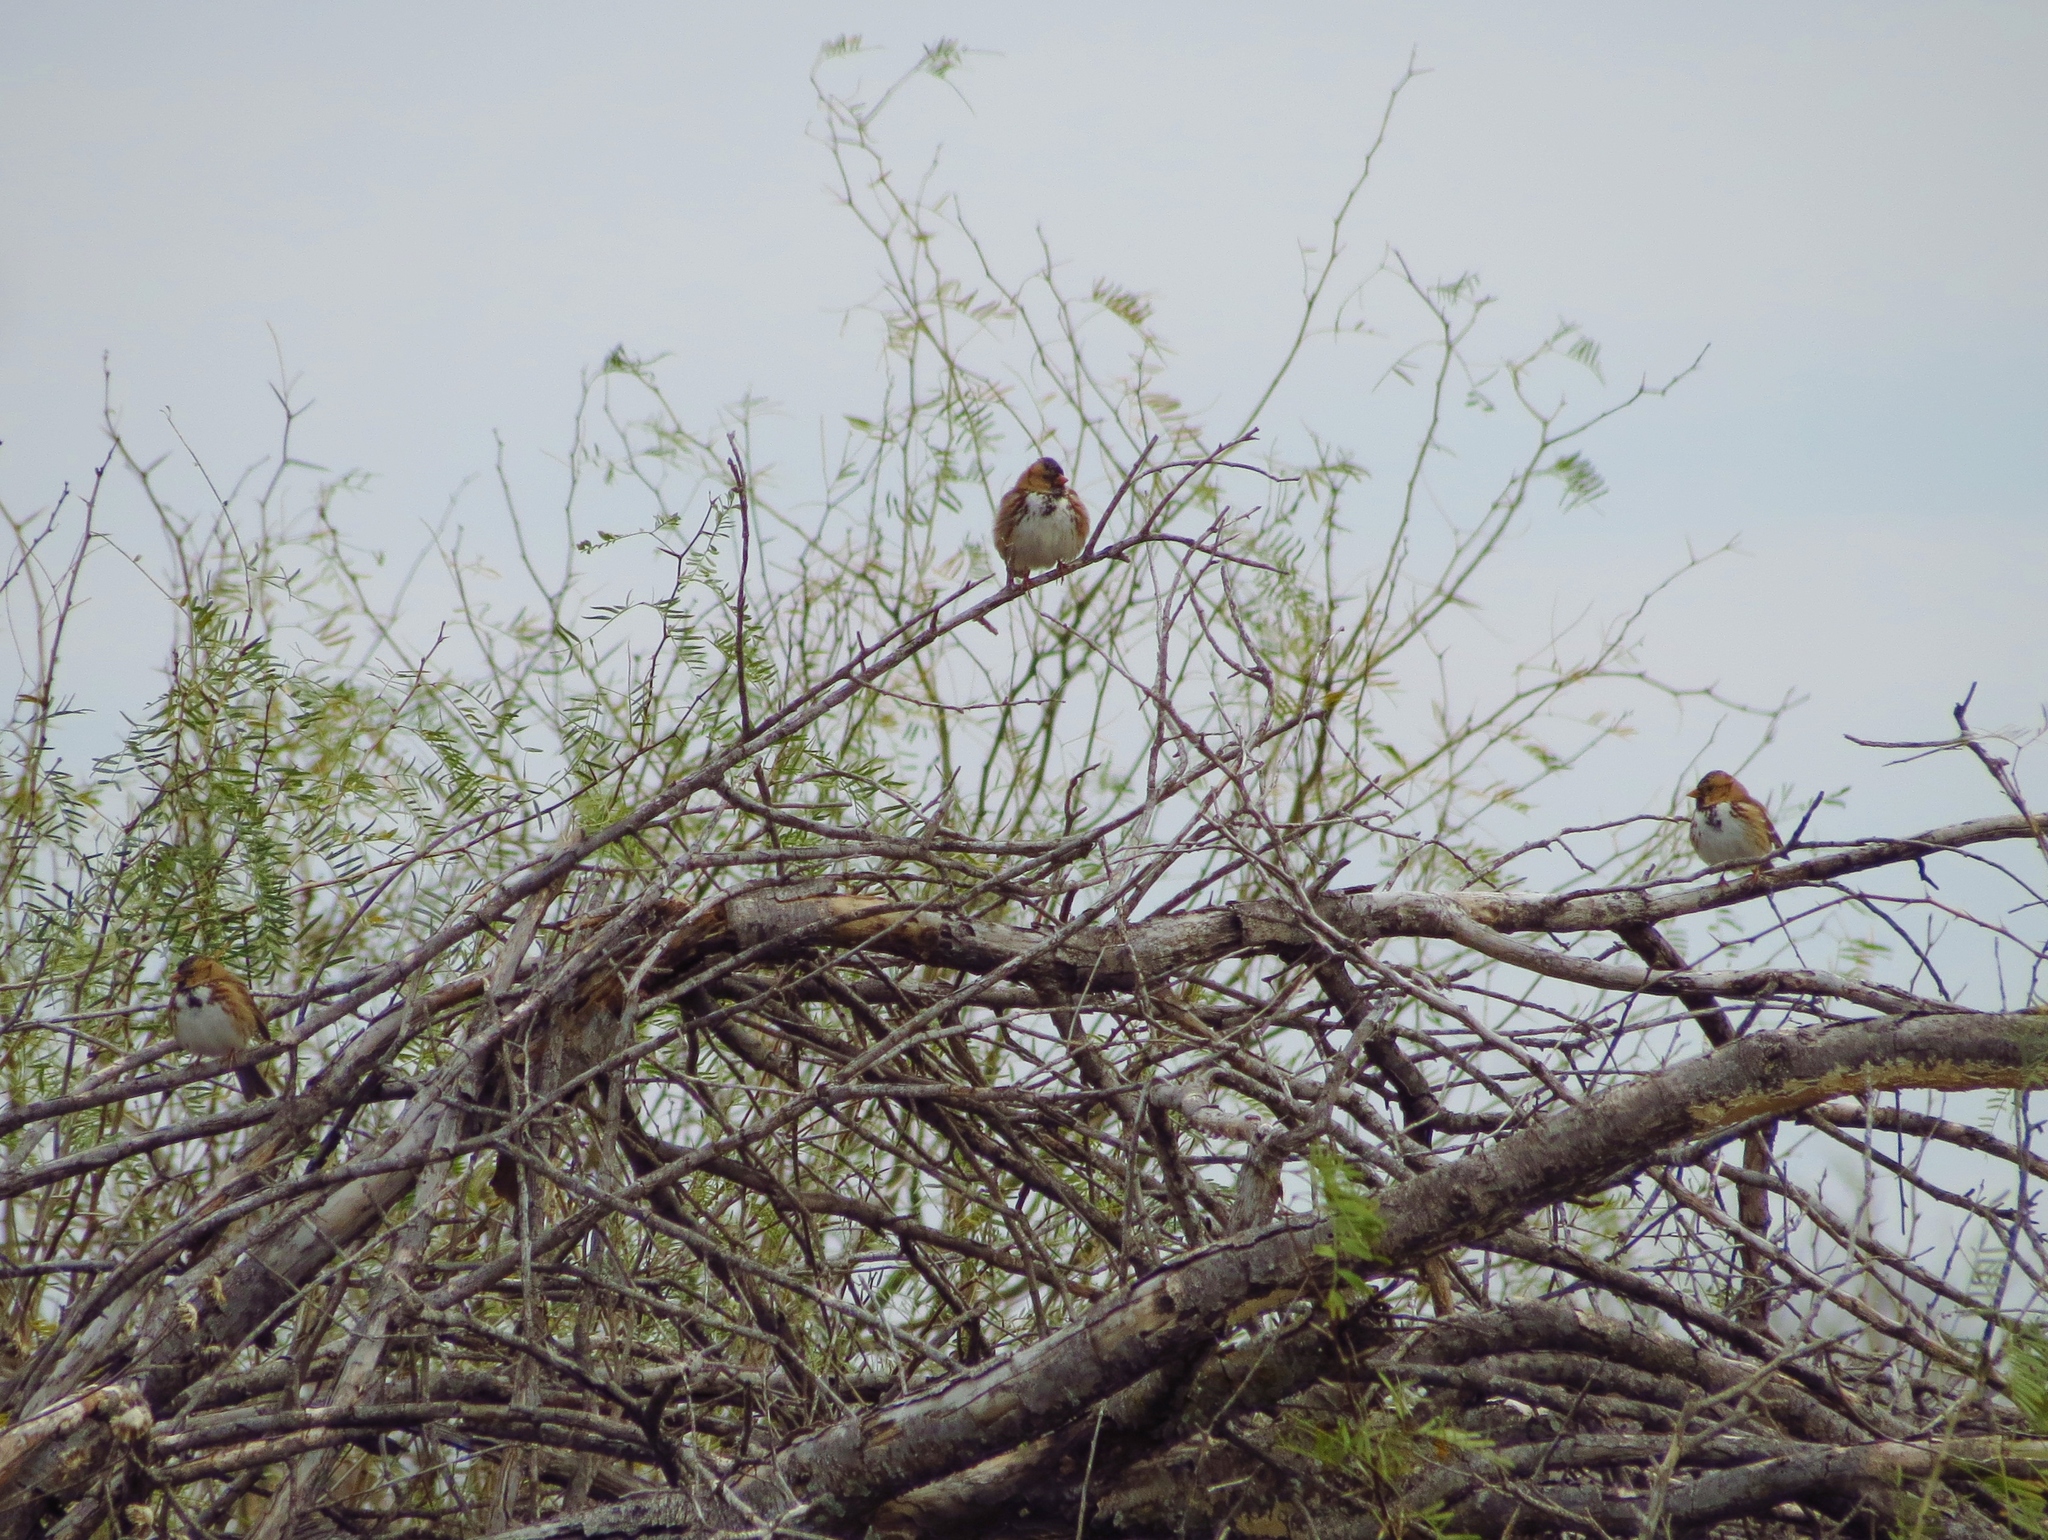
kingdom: Animalia
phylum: Chordata
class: Aves
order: Passeriformes
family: Passerellidae
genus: Zonotrichia
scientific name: Zonotrichia querula
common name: Harris's sparrow
